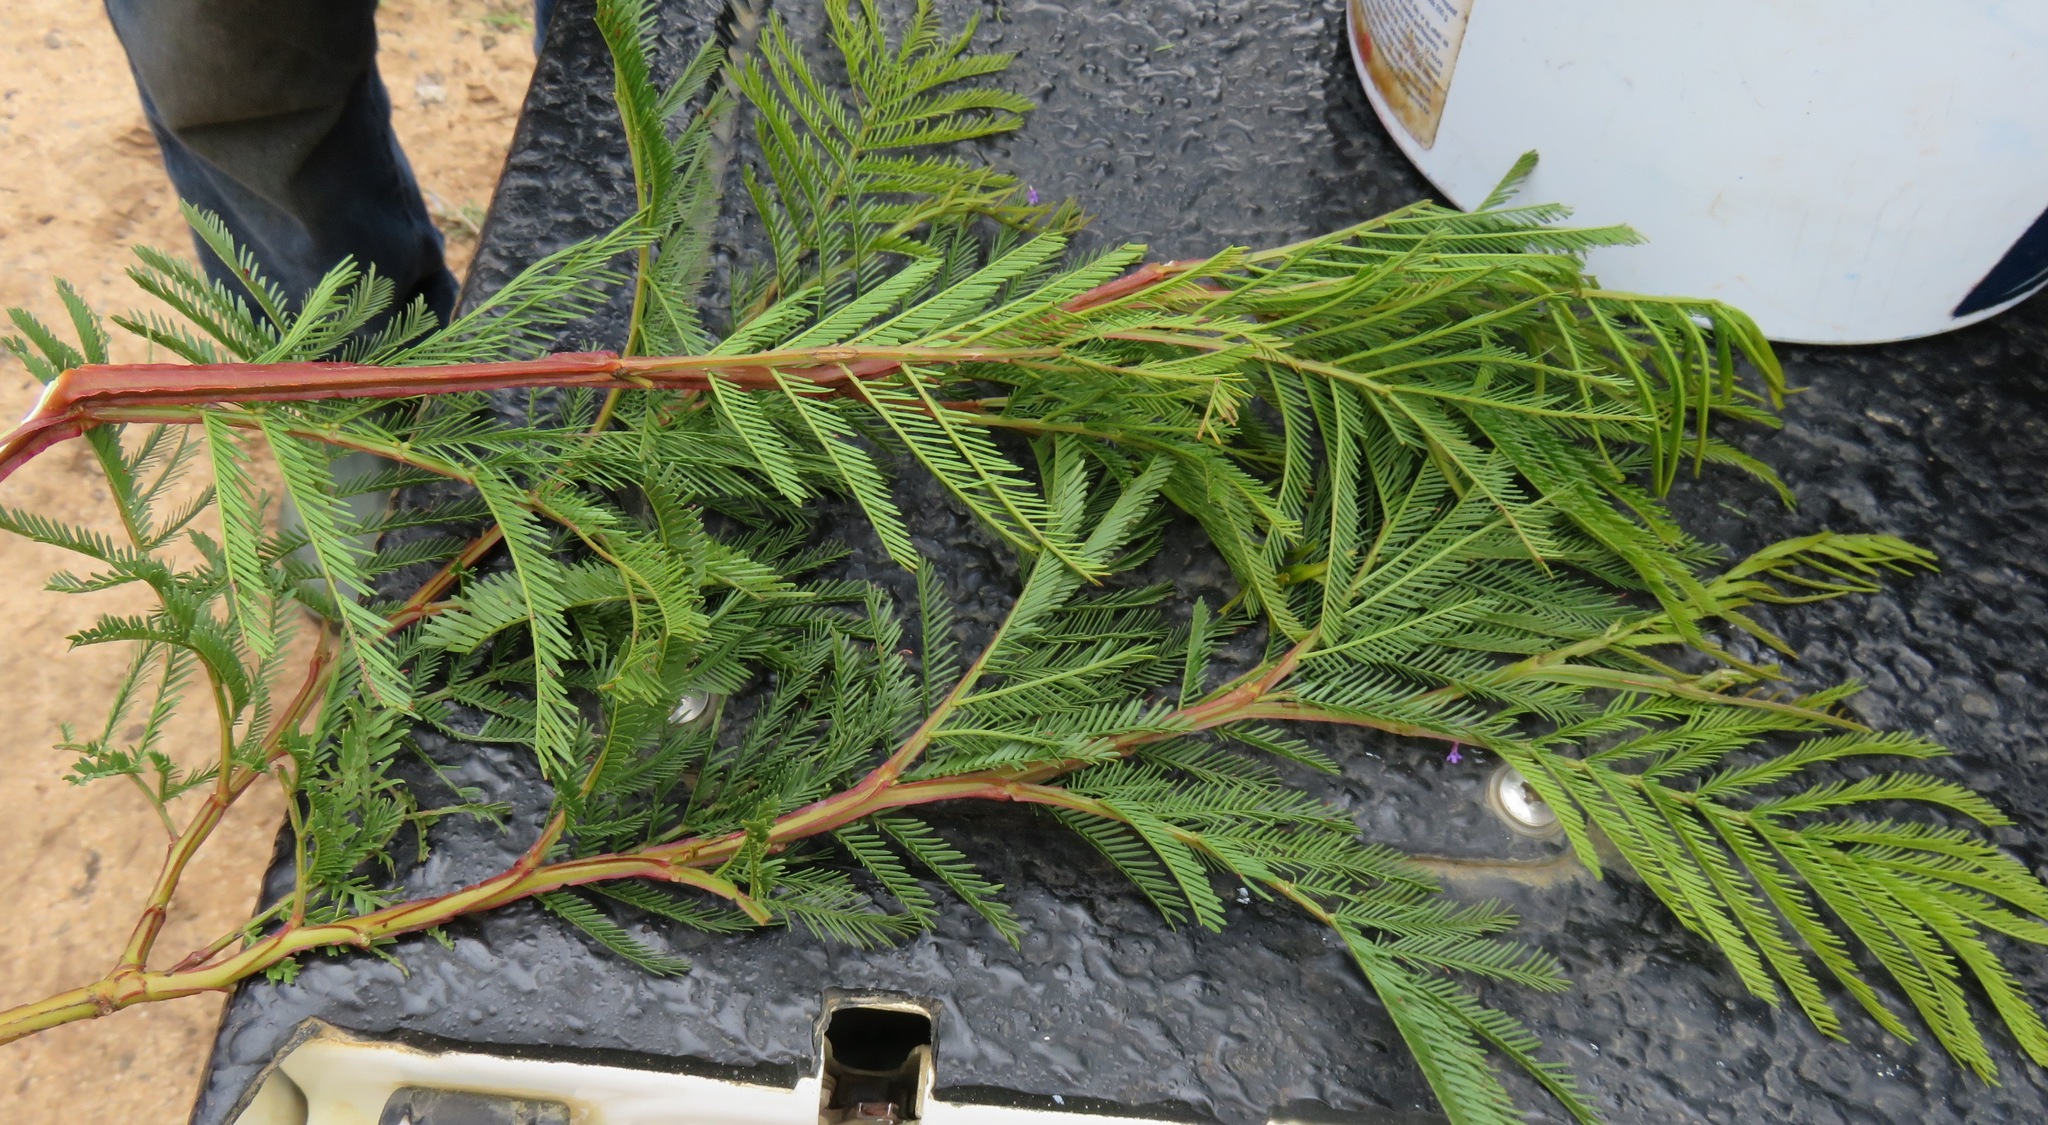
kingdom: Plantae
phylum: Tracheophyta
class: Magnoliopsida
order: Fabales
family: Fabaceae
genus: Acacia
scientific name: Acacia decurrens
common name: Green wattle
